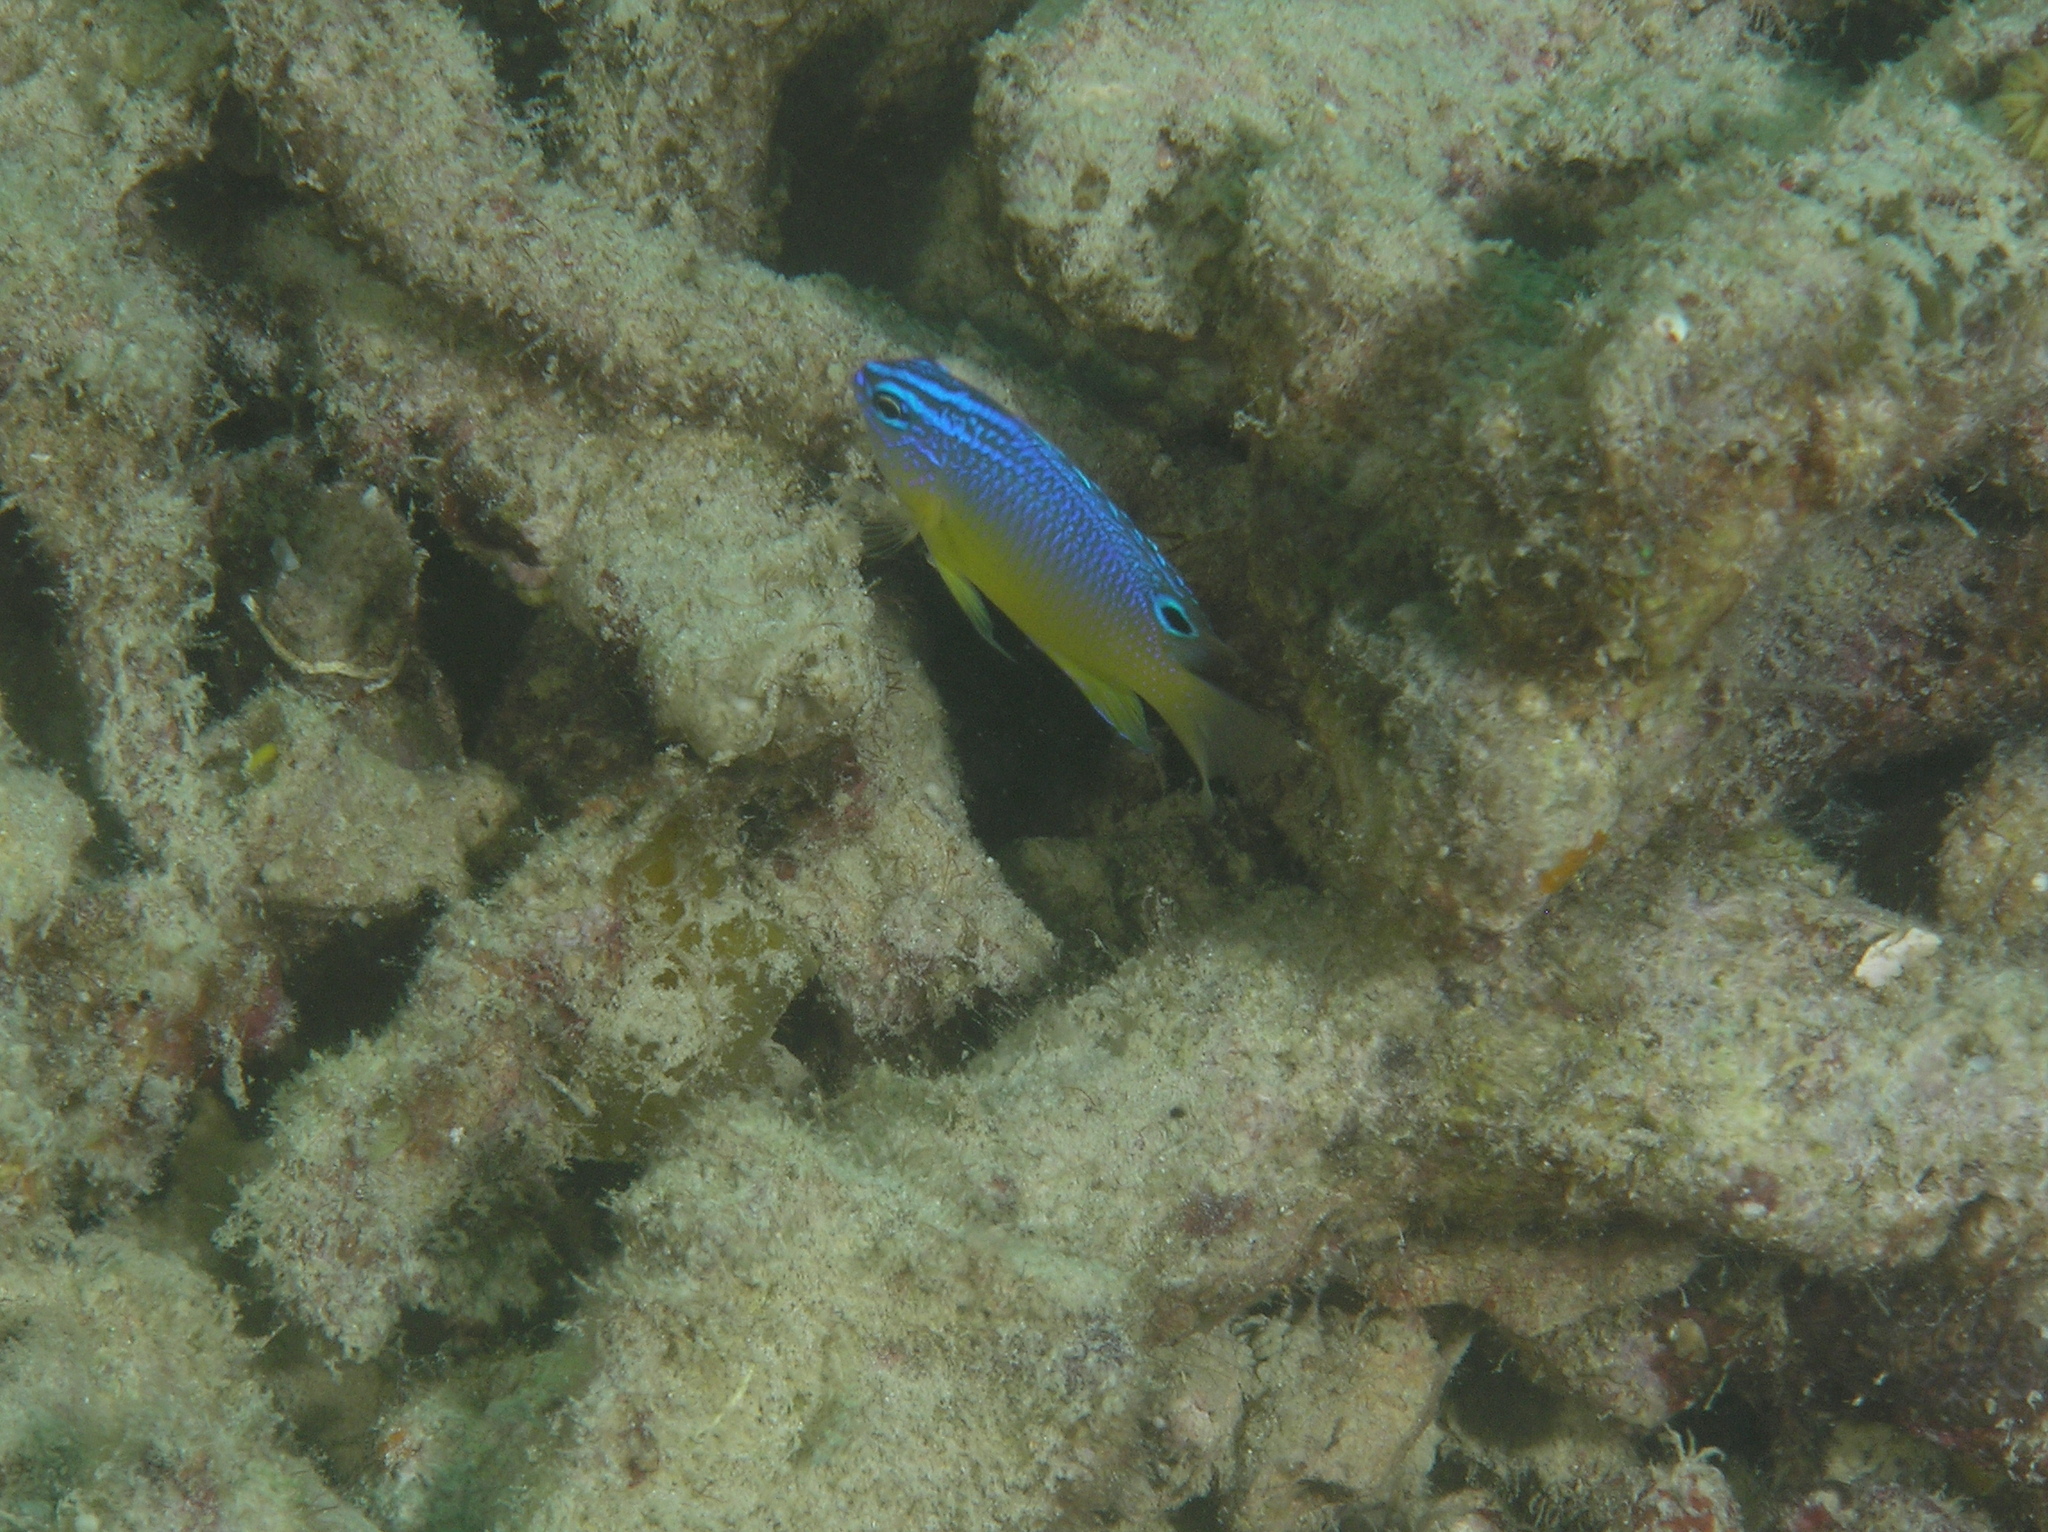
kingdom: Animalia
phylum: Chordata
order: Perciformes
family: Pomacentridae
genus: Pomacentrus
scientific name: Pomacentrus cuneatus
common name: Wedgespot damsel
